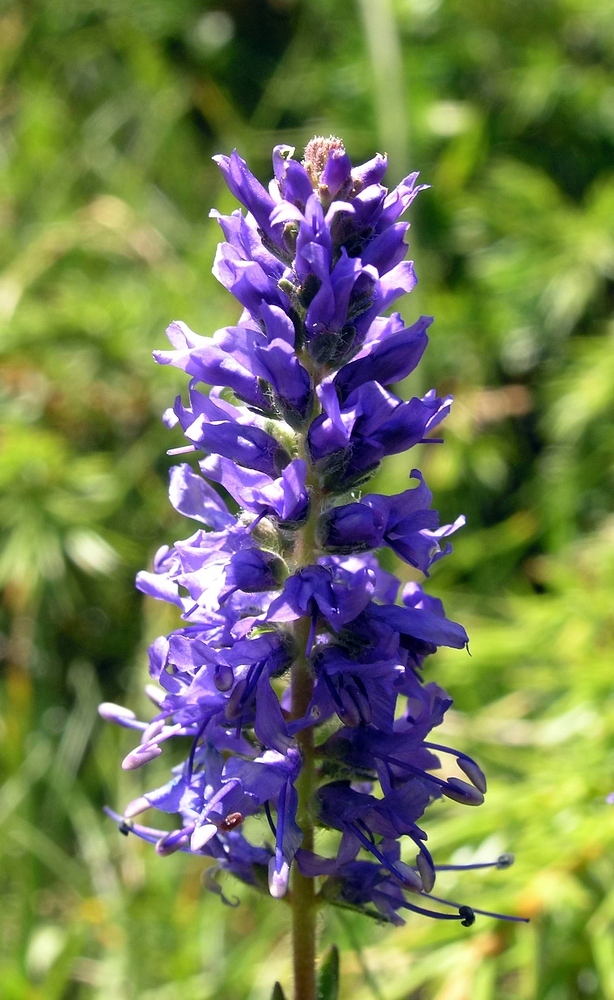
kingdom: Plantae
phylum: Tracheophyta
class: Magnoliopsida
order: Lamiales
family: Plantaginaceae
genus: Veronica
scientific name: Veronica spicata
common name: Spiked speedwell
